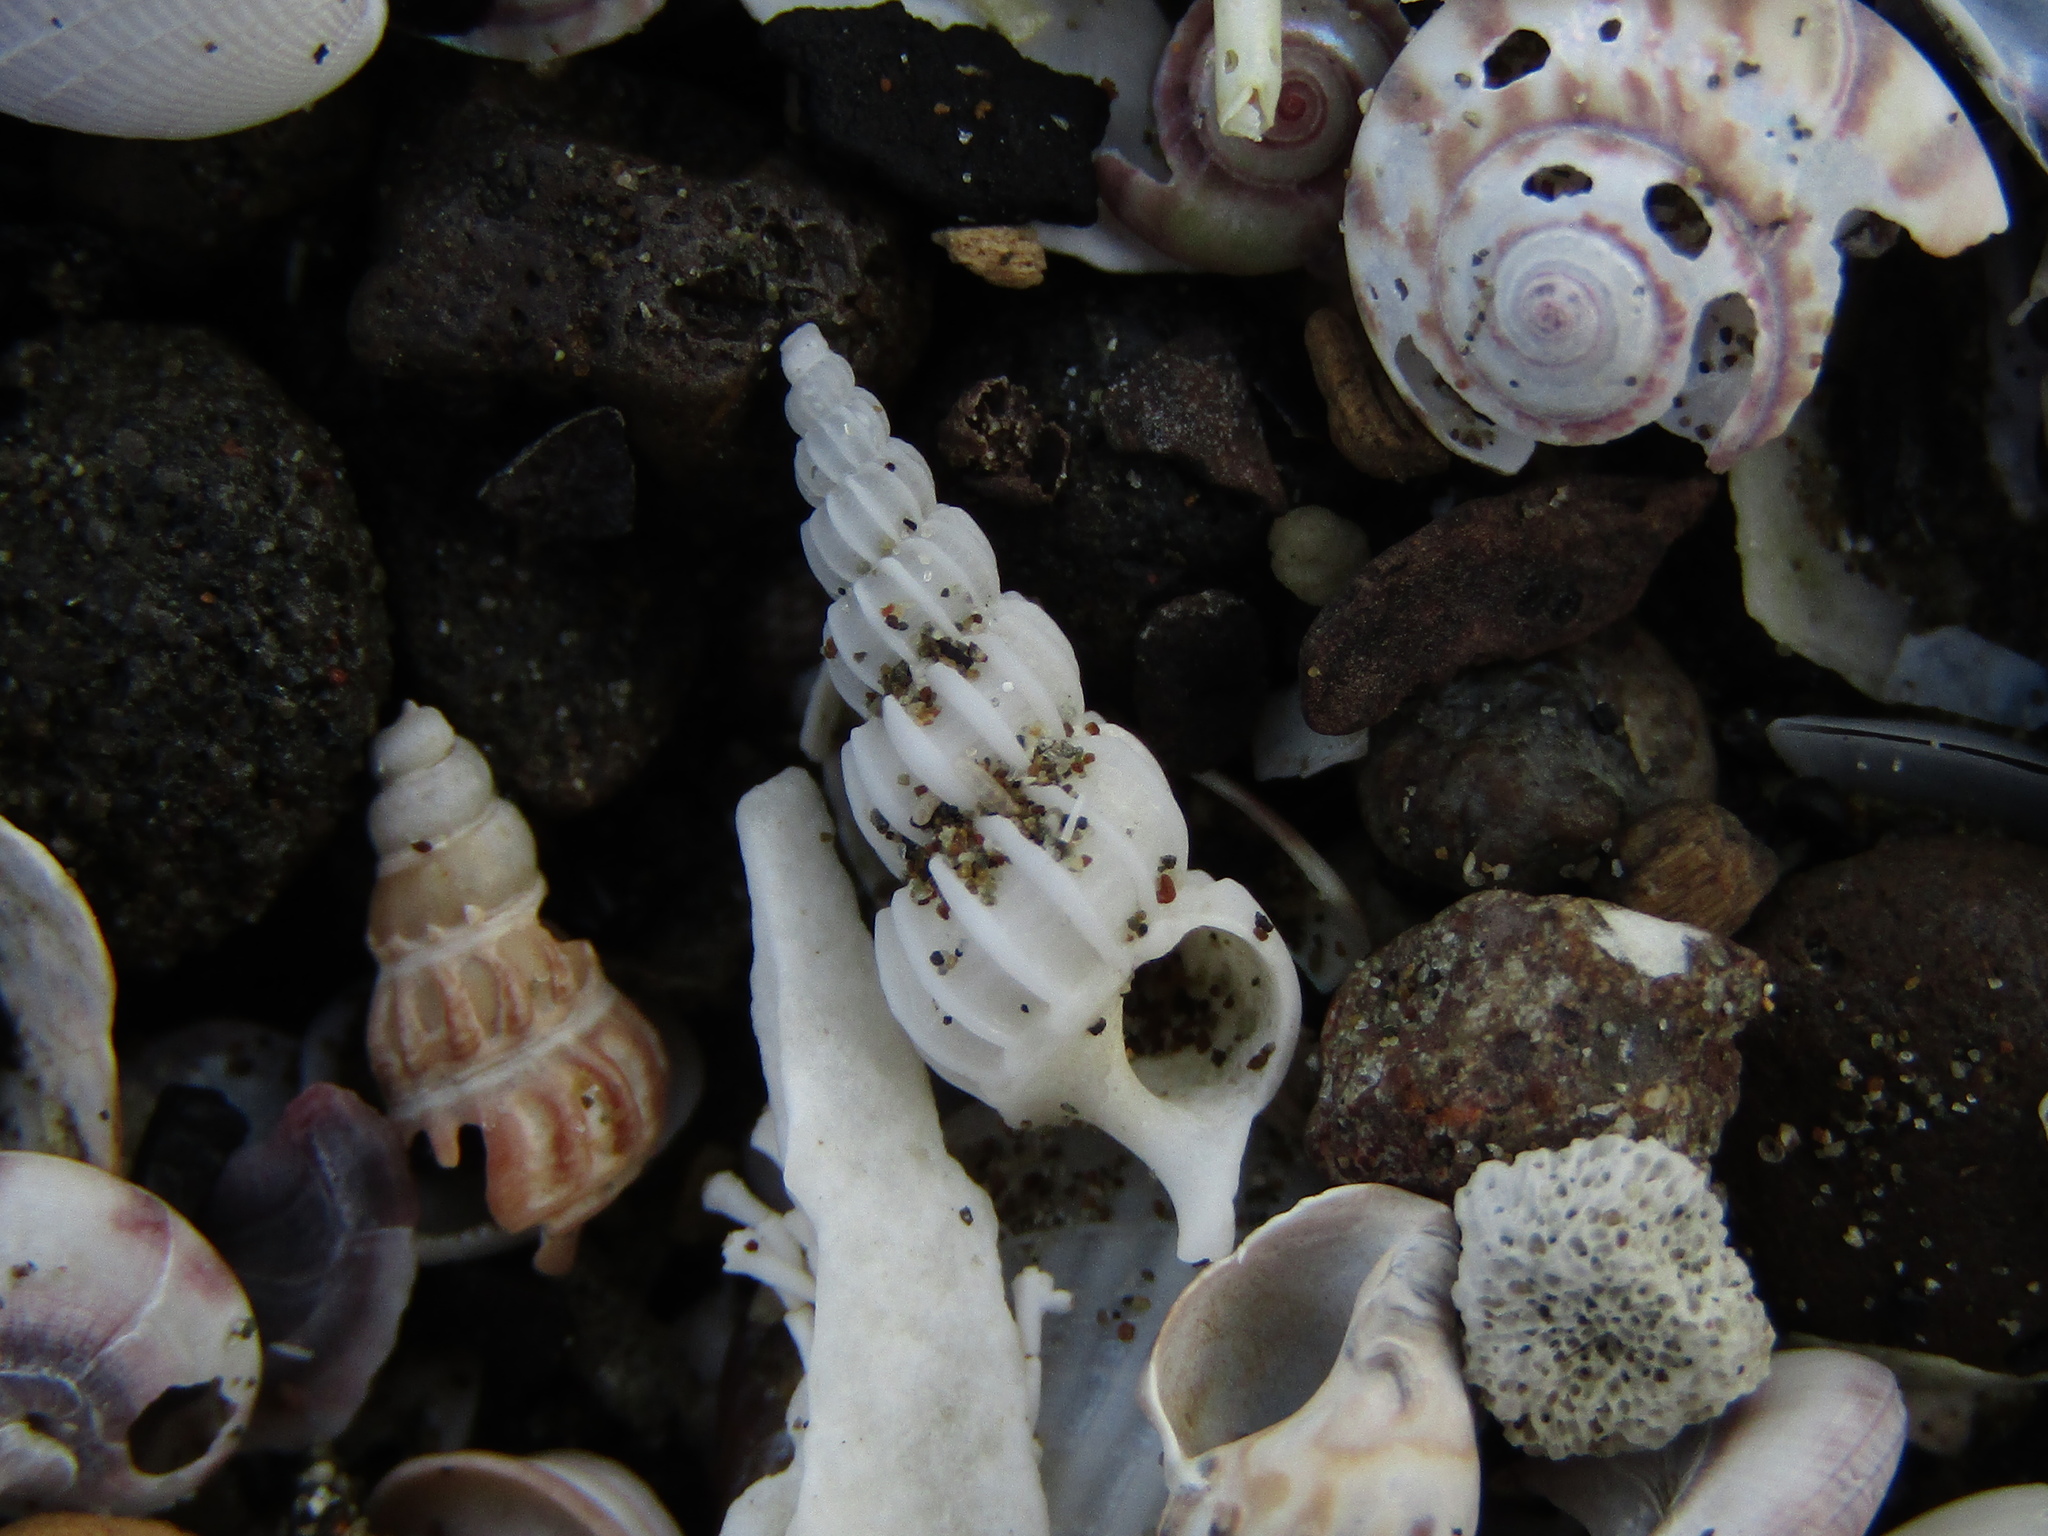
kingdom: Animalia
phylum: Mollusca
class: Gastropoda
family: Epitoniidae
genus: Cirsotrema
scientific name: Cirsotrema zelebori
